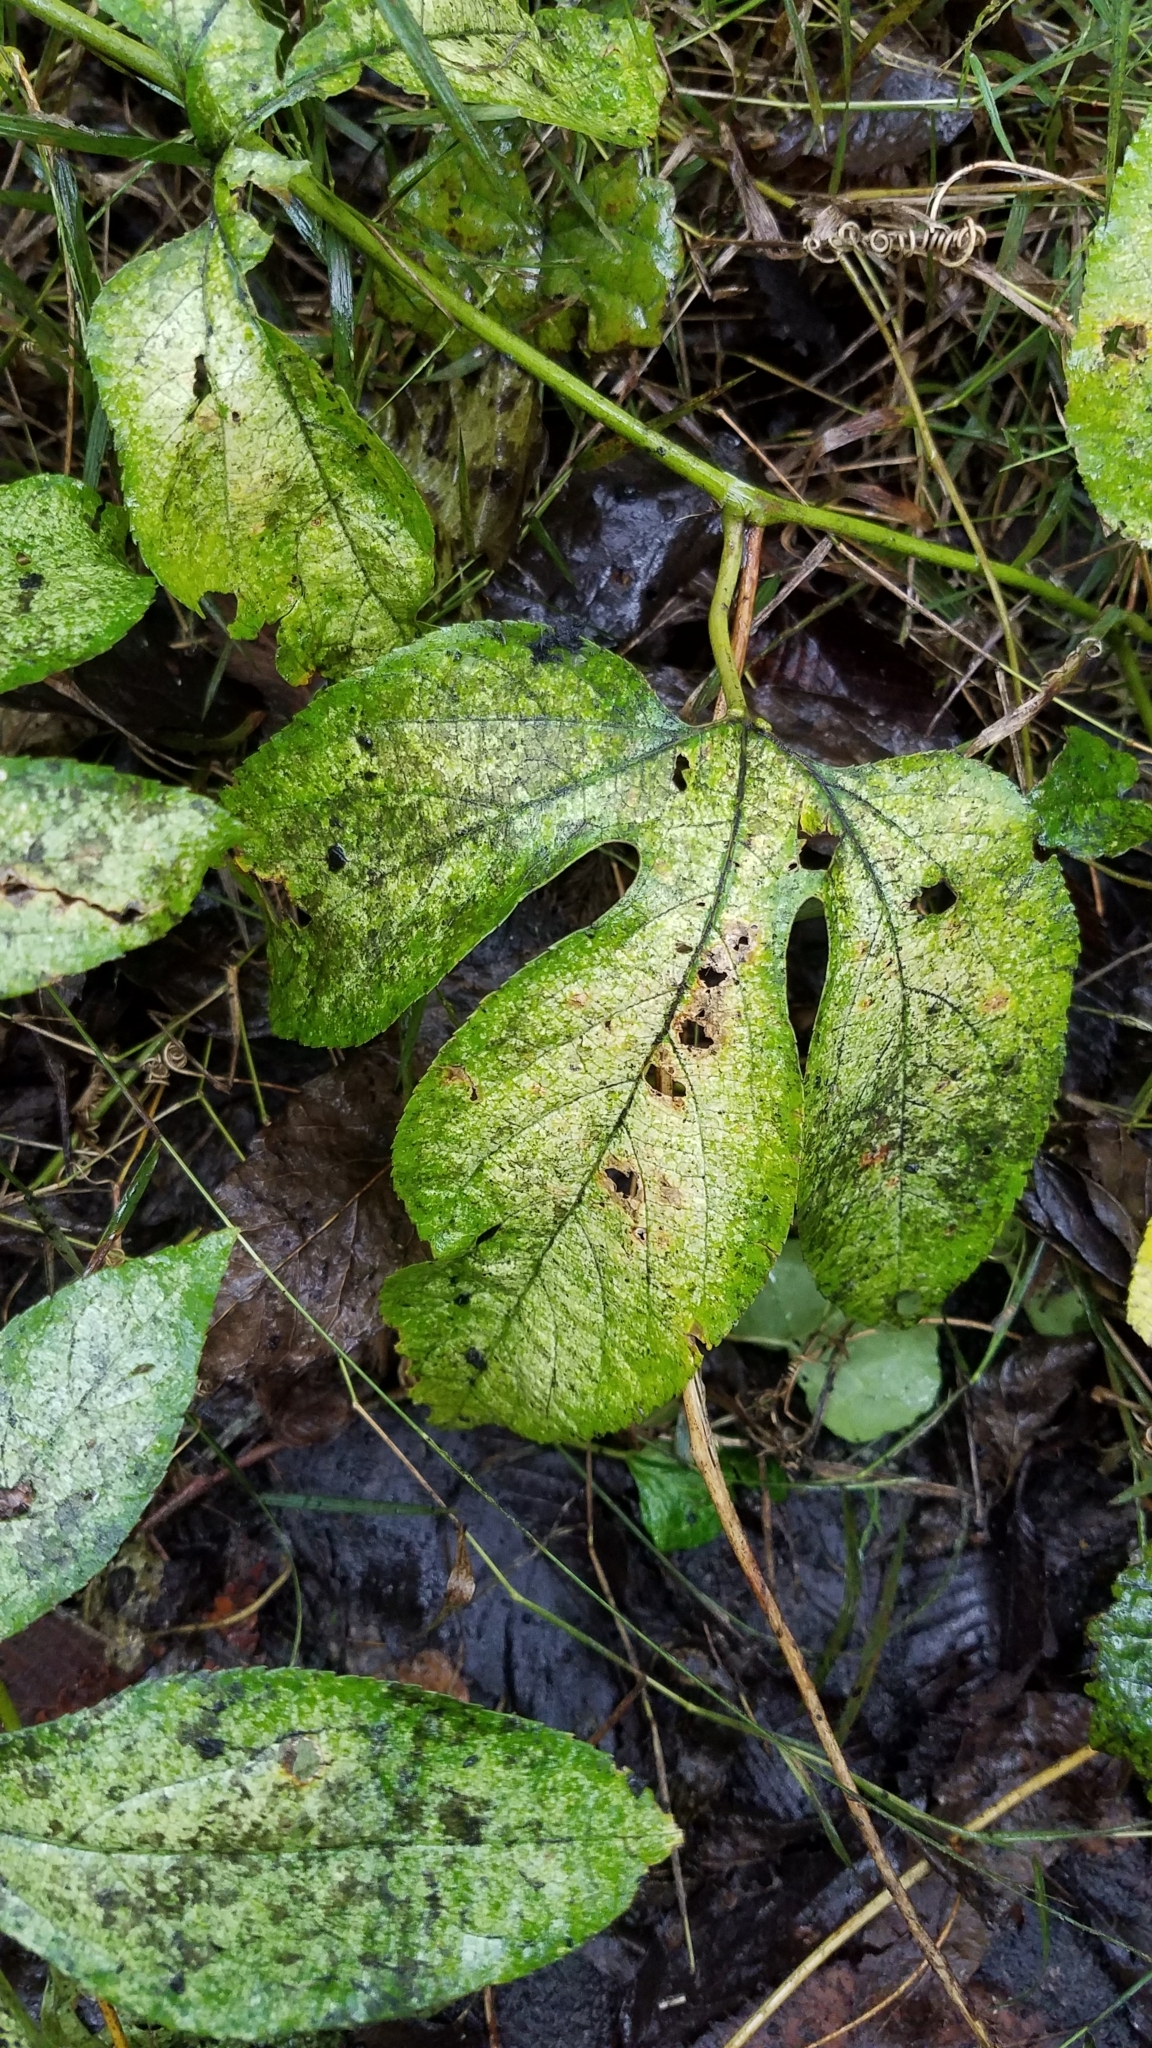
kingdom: Plantae
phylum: Tracheophyta
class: Magnoliopsida
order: Malpighiales
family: Passifloraceae
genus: Passiflora
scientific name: Passiflora incarnata
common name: Apricot-vine
